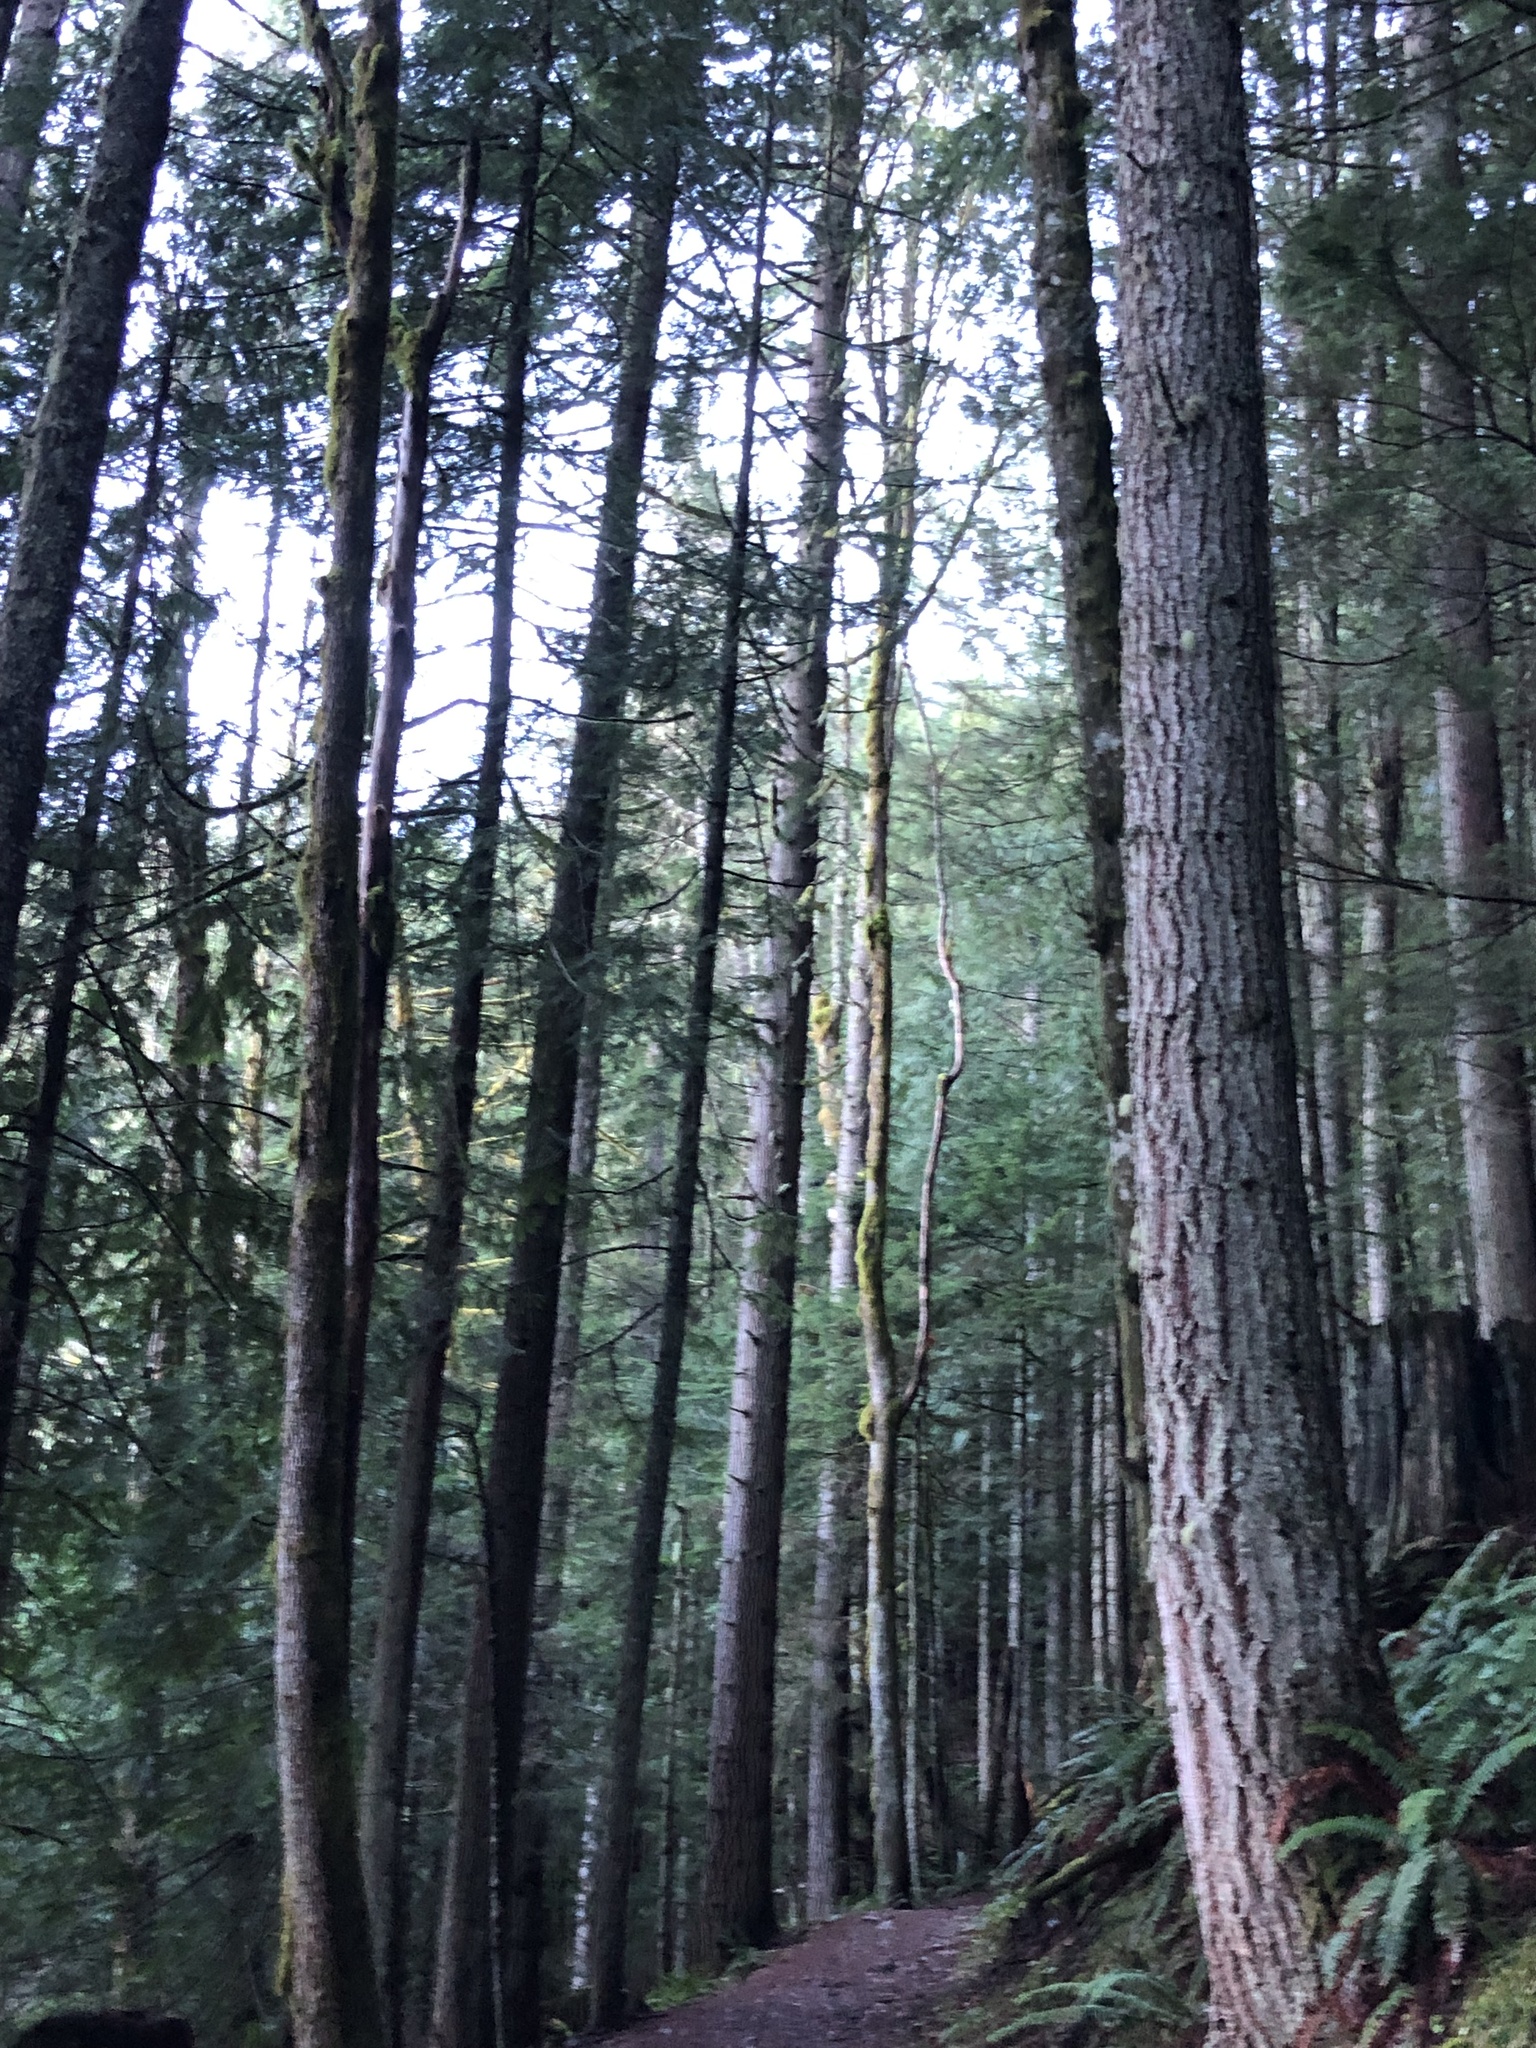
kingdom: Plantae
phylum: Tracheophyta
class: Magnoliopsida
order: Sapindales
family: Sapindaceae
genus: Acer
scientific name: Acer macrophyllum
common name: Oregon maple
